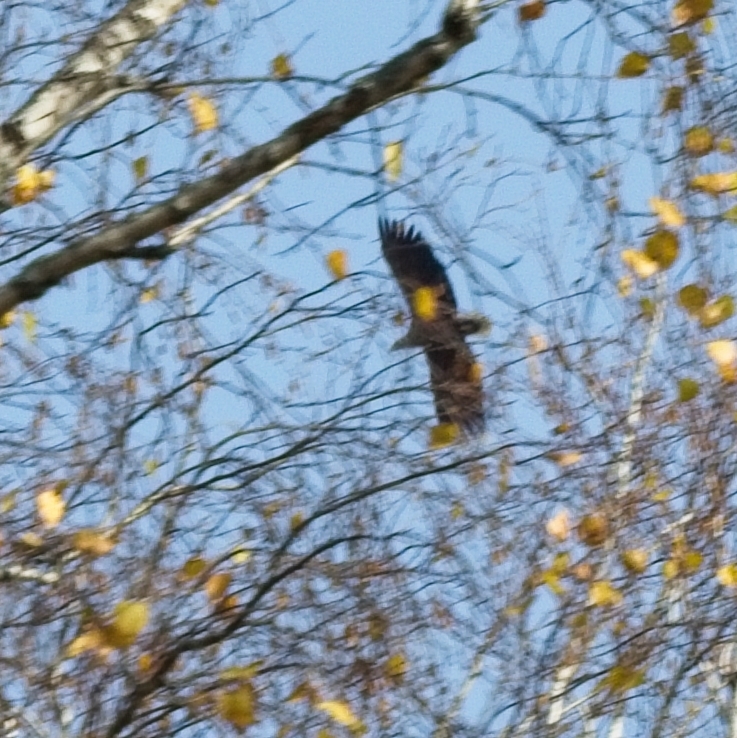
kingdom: Animalia
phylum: Chordata
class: Aves
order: Accipitriformes
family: Accipitridae
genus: Haliaeetus
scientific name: Haliaeetus albicilla
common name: White-tailed eagle
